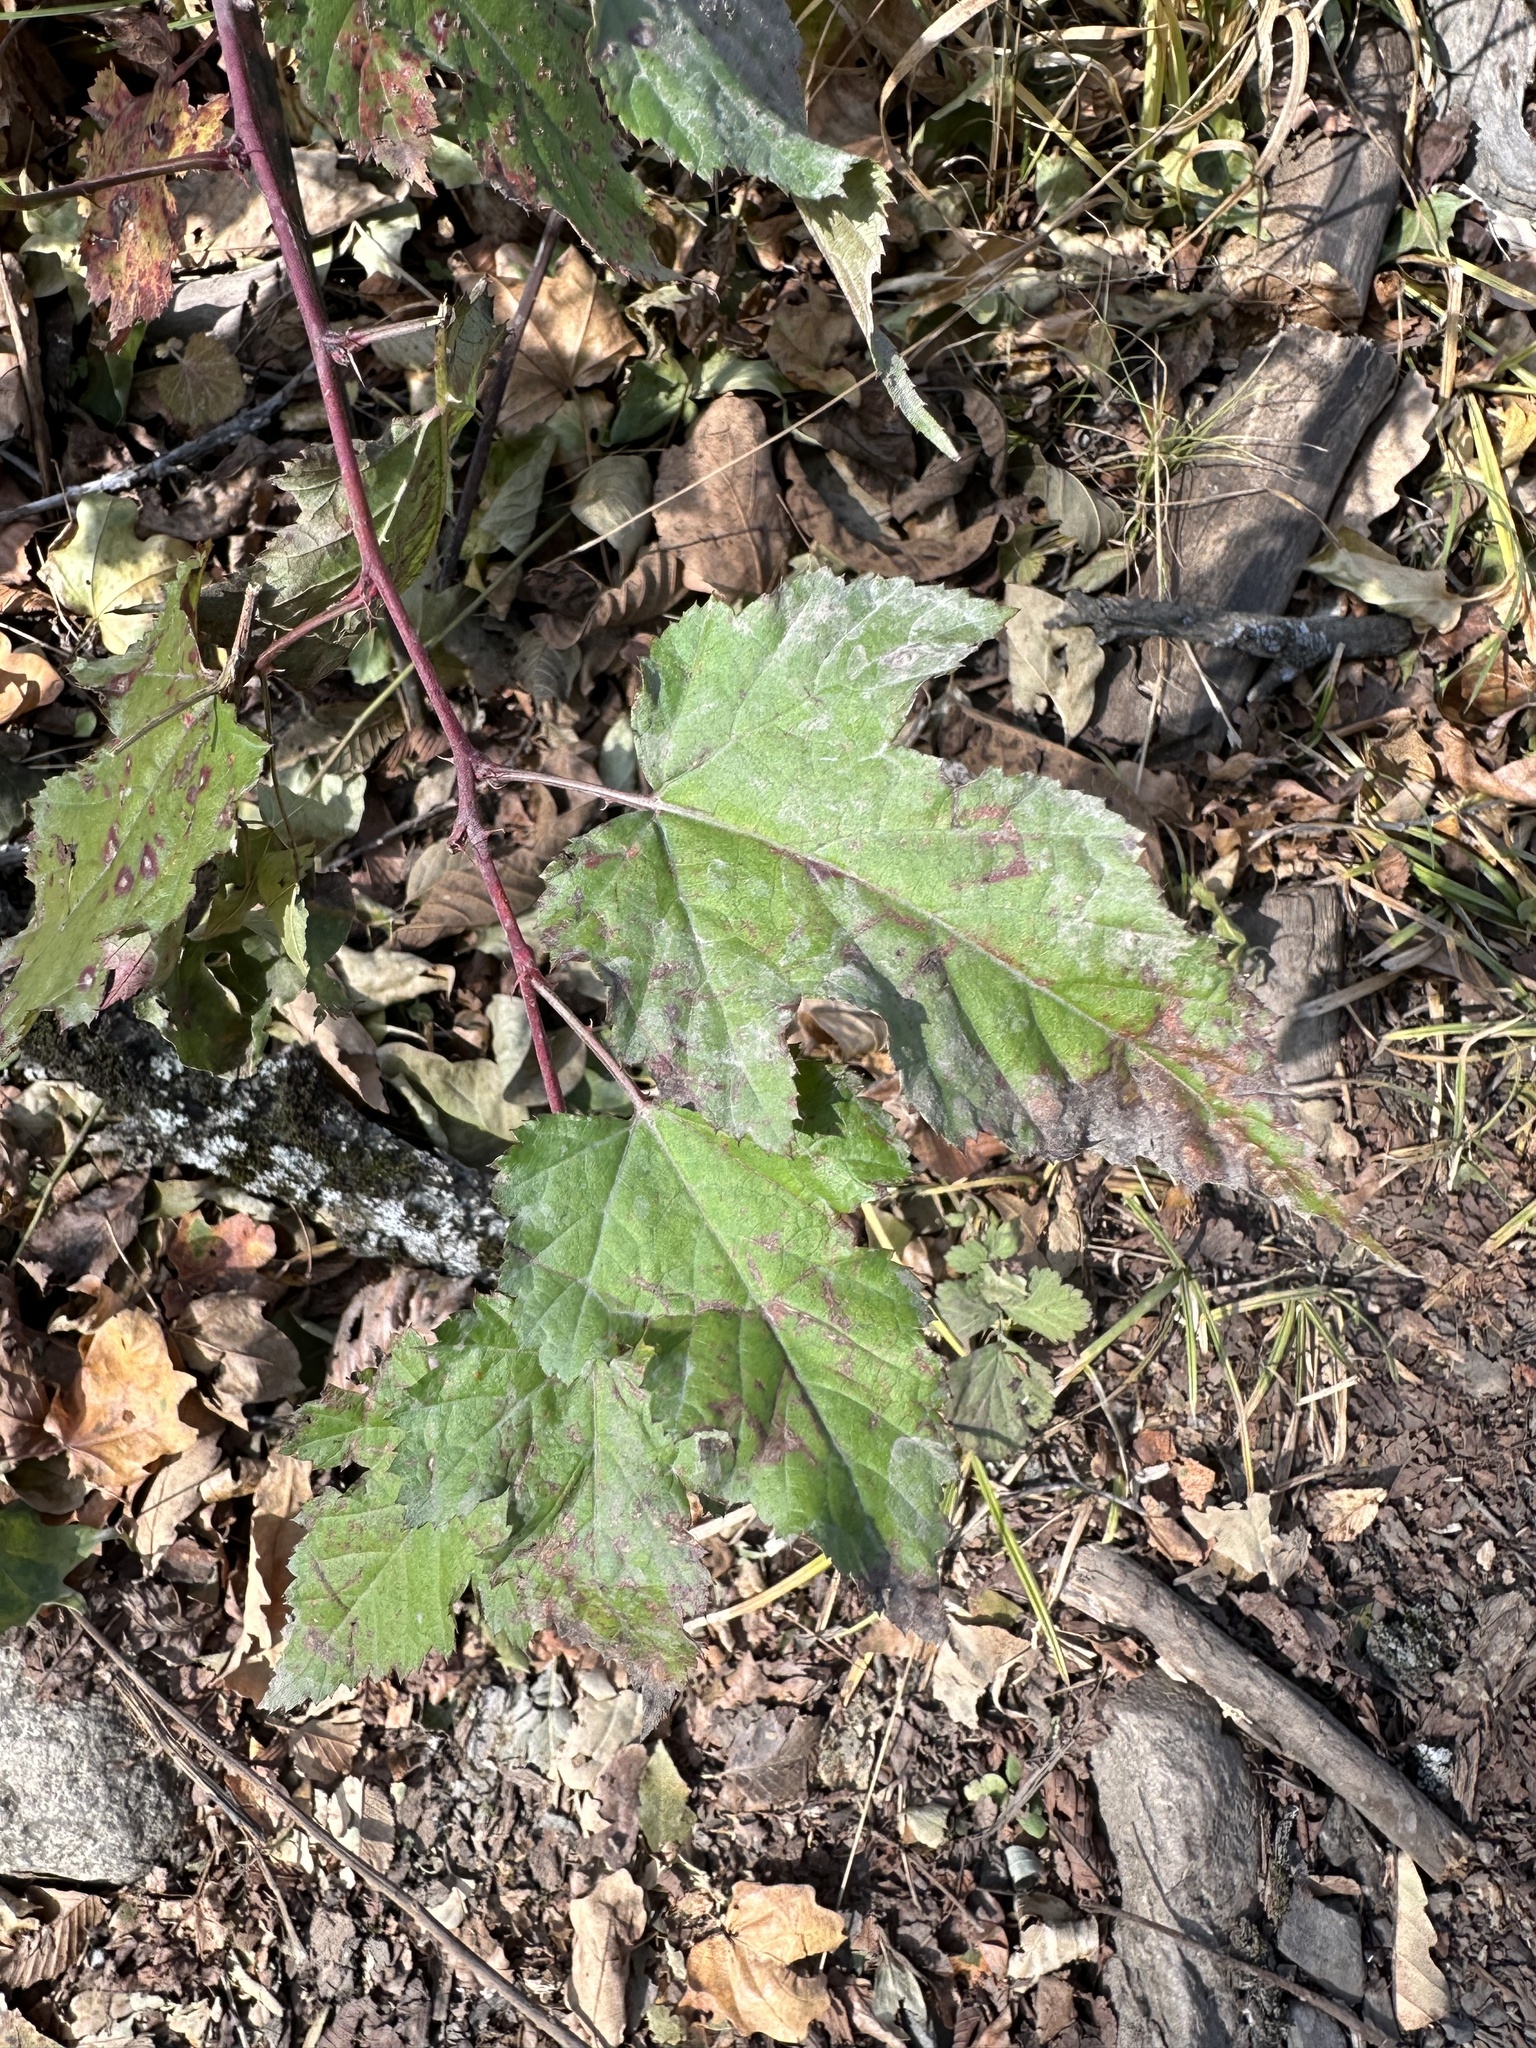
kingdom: Plantae
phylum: Tracheophyta
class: Magnoliopsida
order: Rosales
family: Rosaceae
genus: Rubus
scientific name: Rubus crataegifolius
